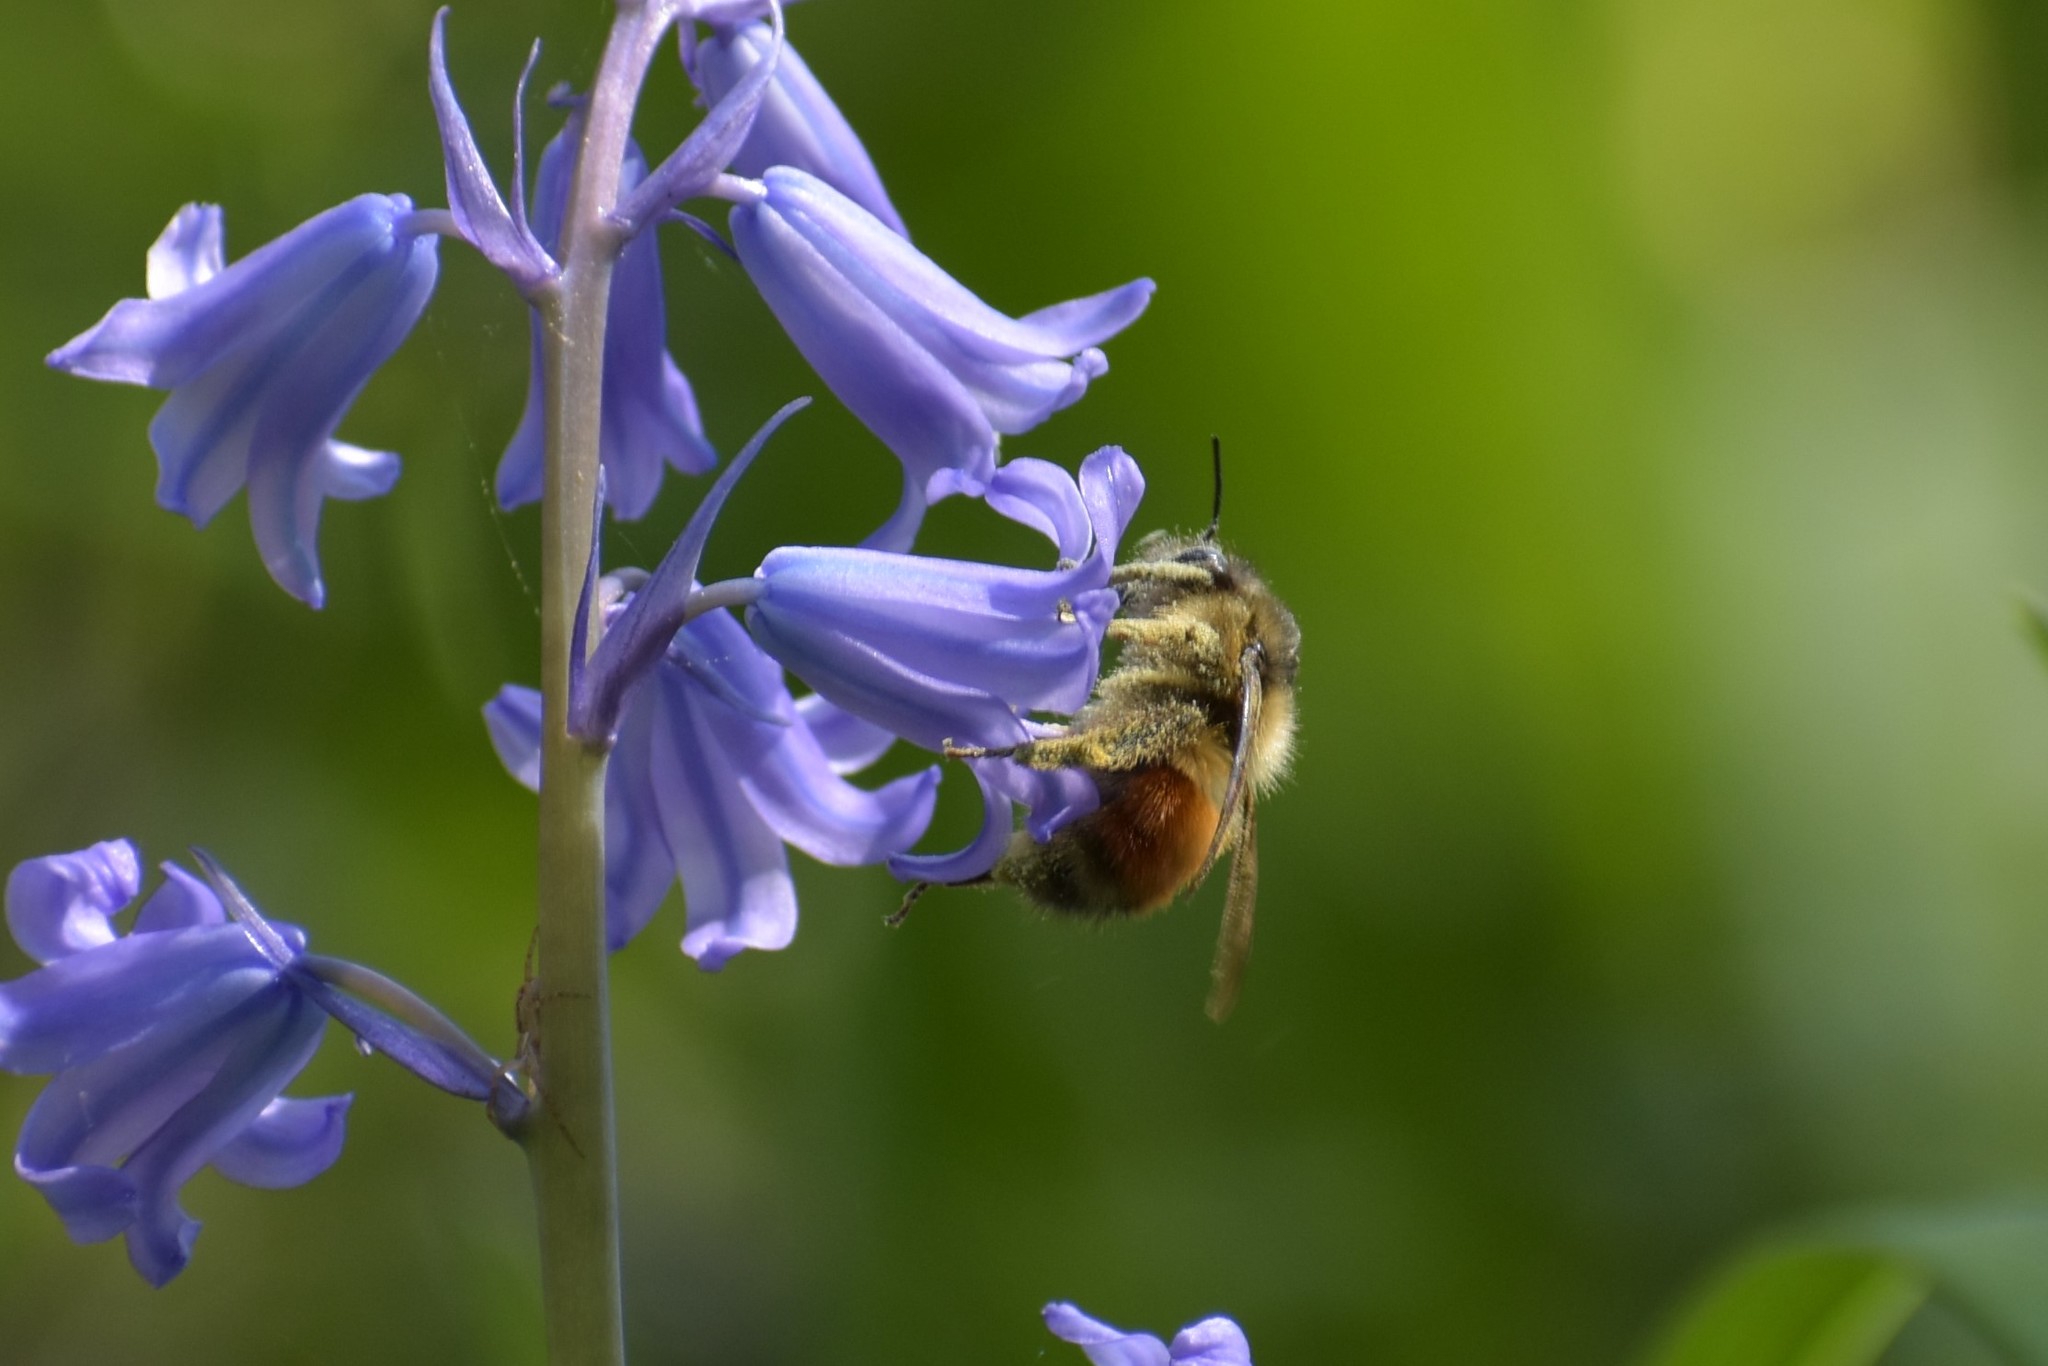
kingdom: Animalia
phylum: Arthropoda
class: Insecta
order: Hymenoptera
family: Apidae
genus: Bombus
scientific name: Bombus melanopygus
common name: Black tail bumble bee
